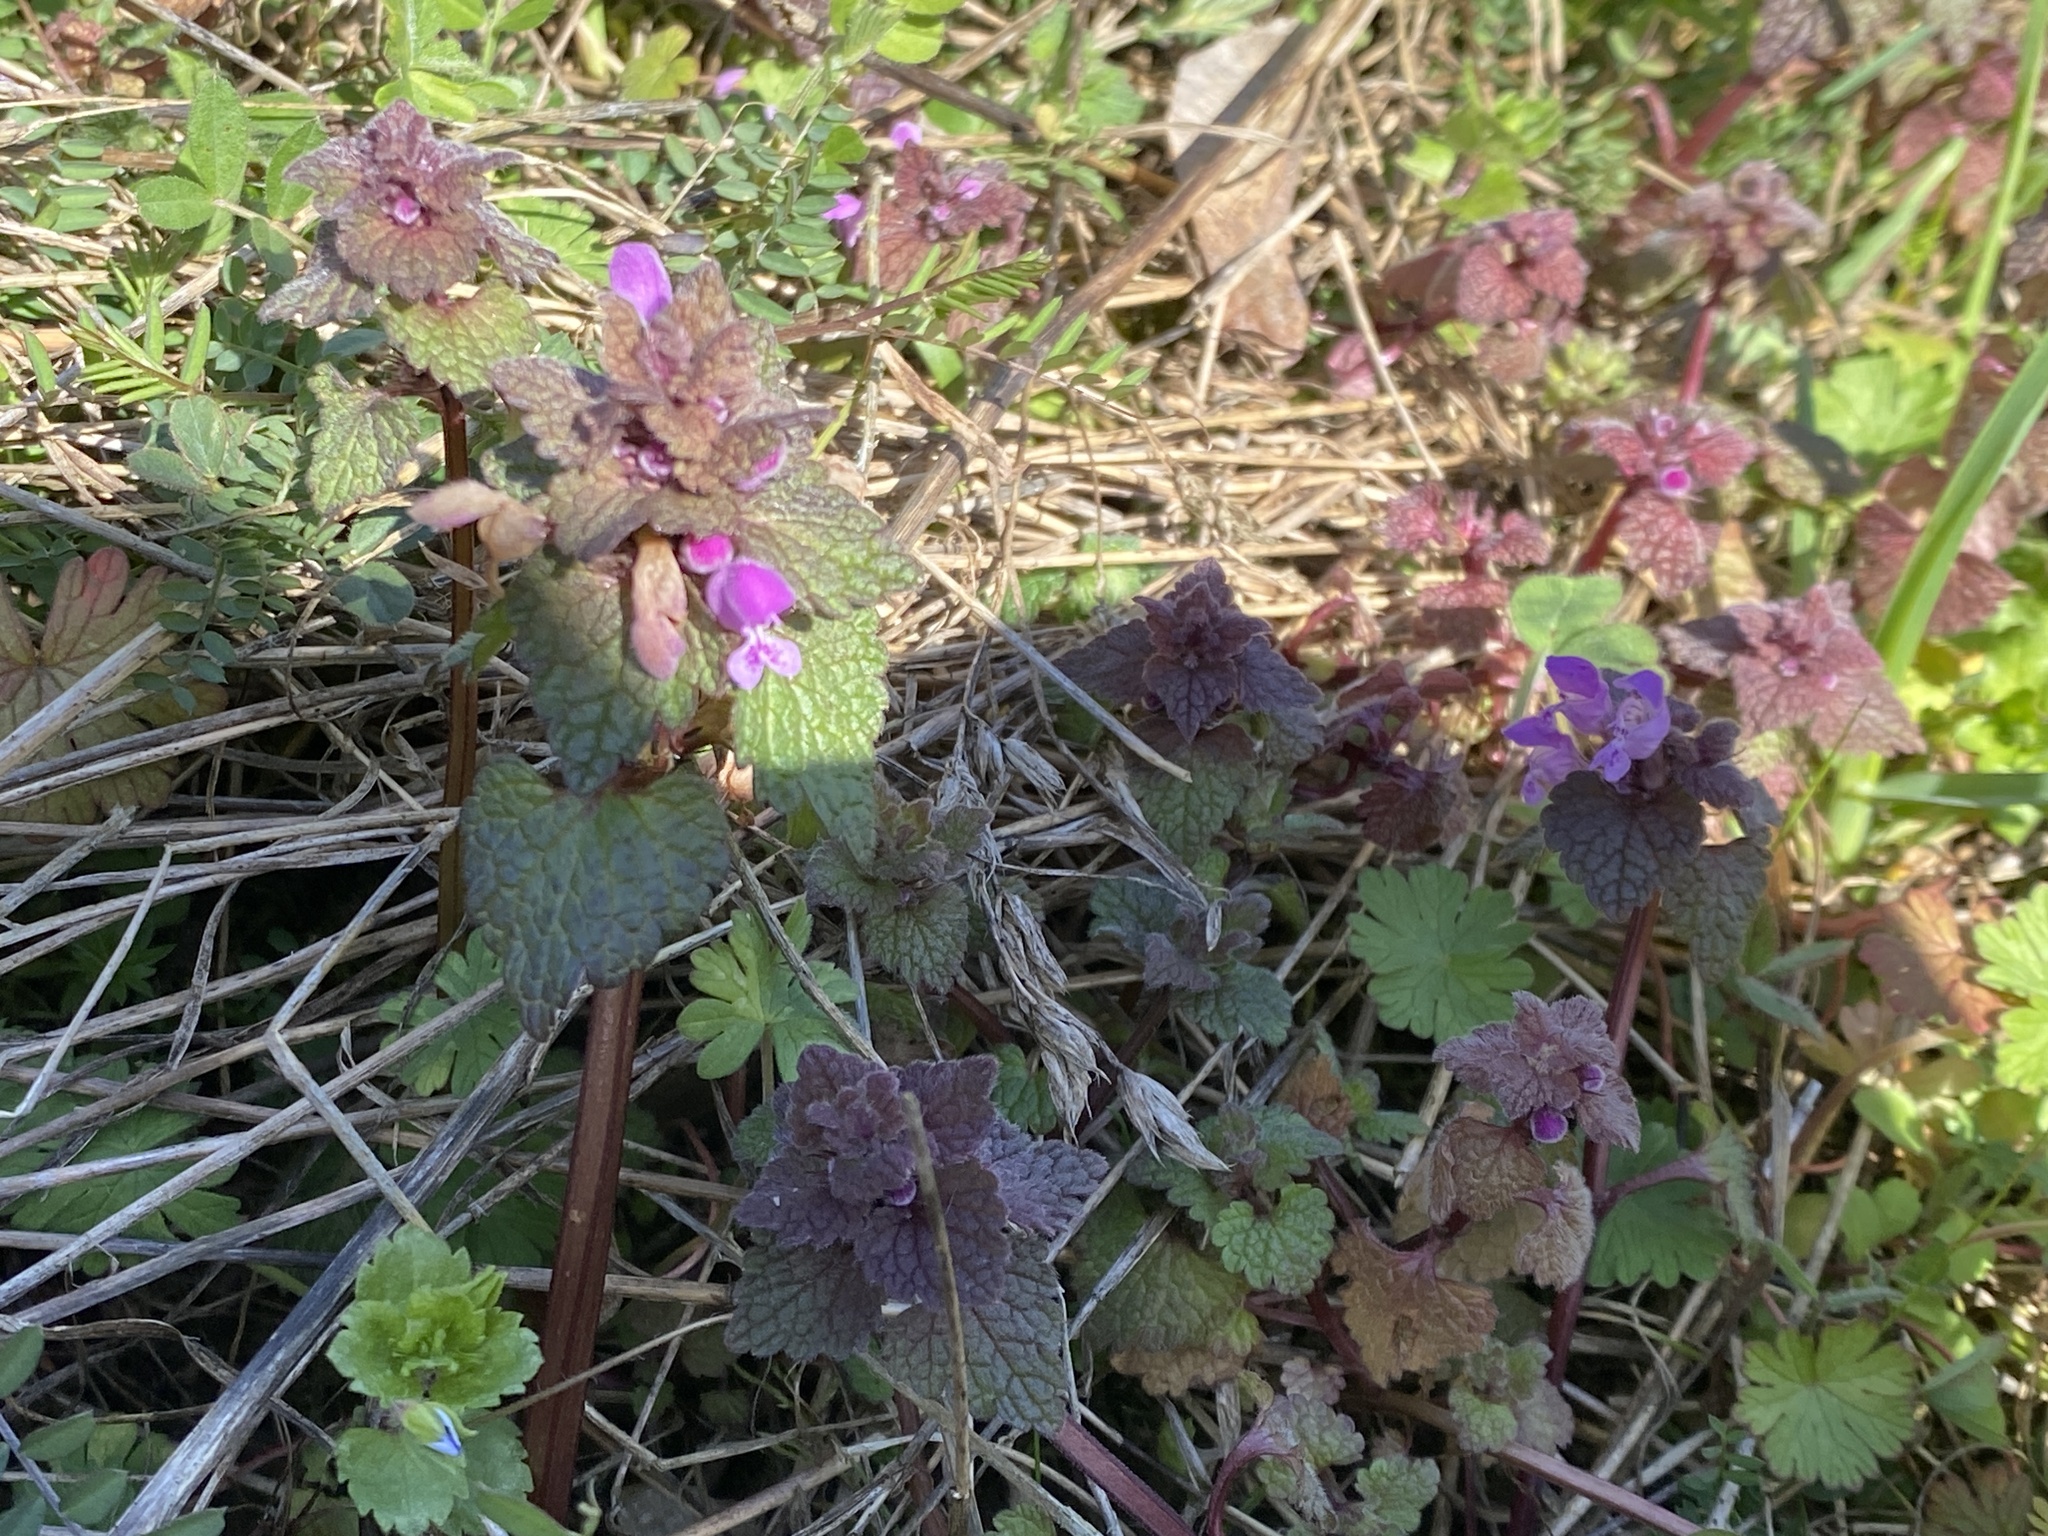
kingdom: Plantae
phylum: Tracheophyta
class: Magnoliopsida
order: Lamiales
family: Lamiaceae
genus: Lamium
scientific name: Lamium purpureum
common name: Red dead-nettle
